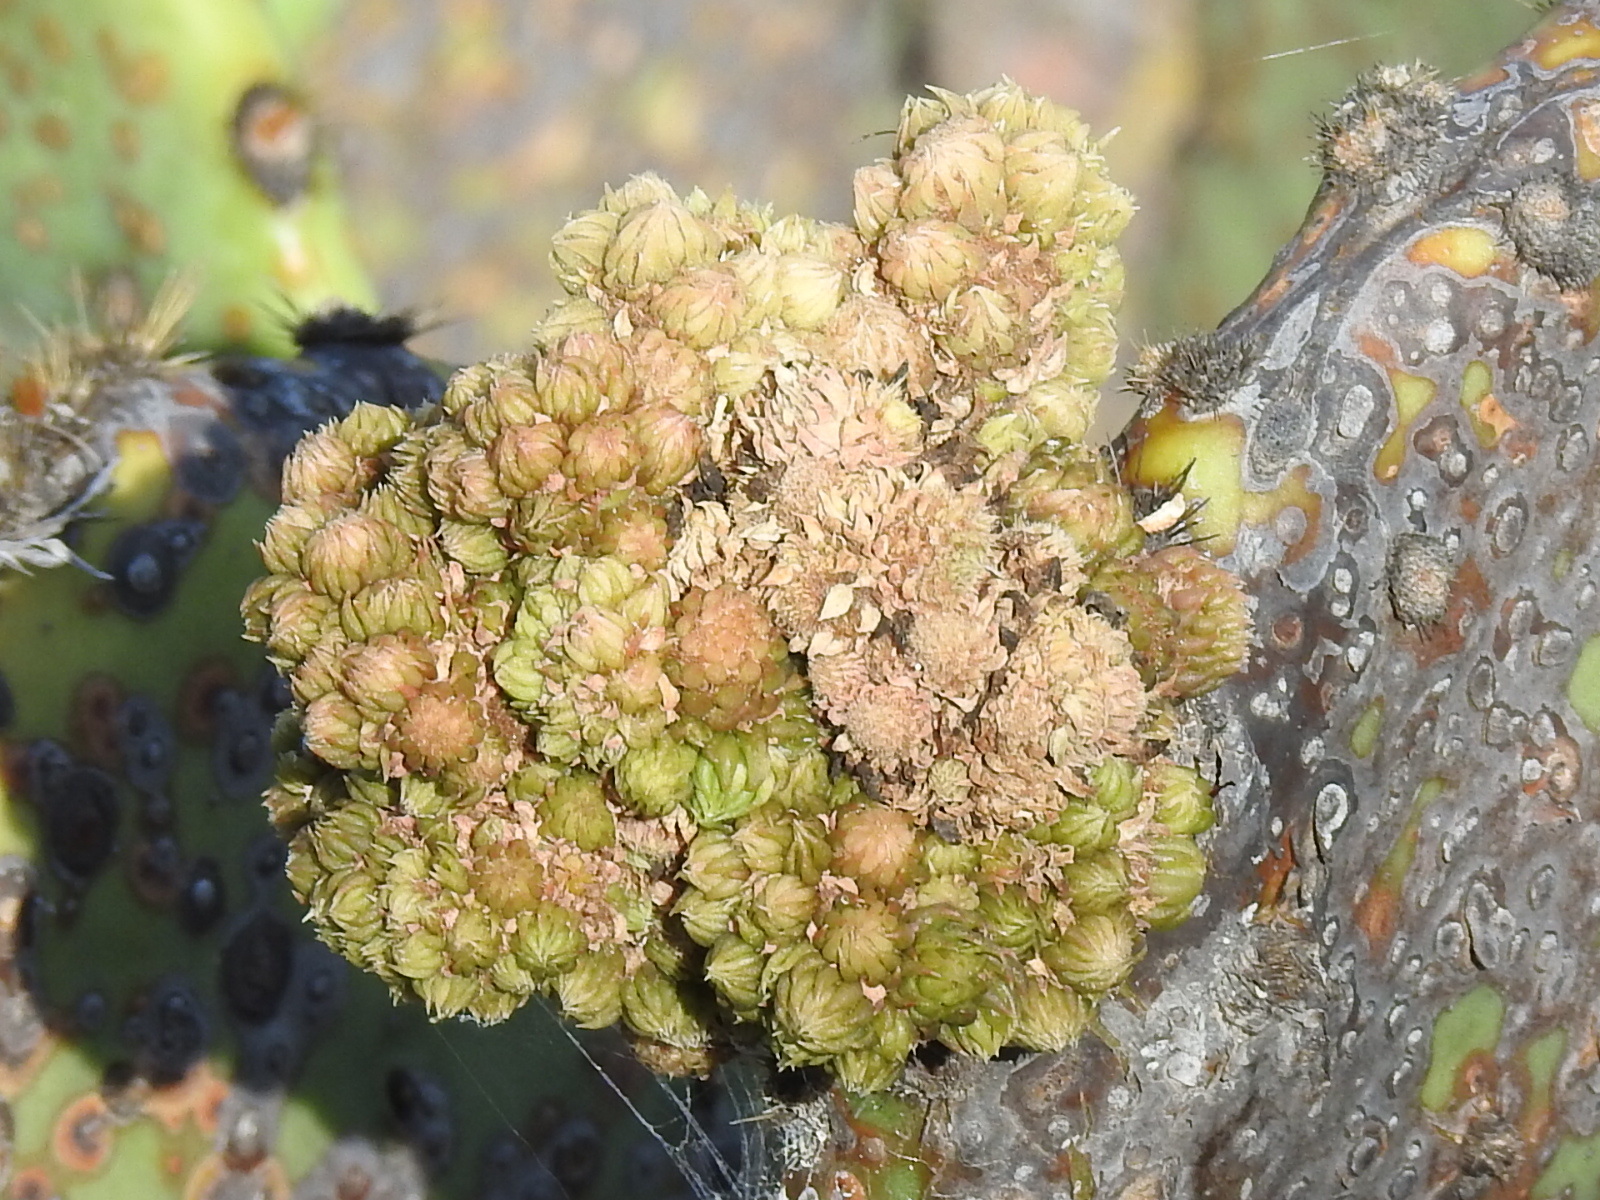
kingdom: Plantae
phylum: Tracheophyta
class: Magnoliopsida
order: Caryophyllales
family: Cactaceae
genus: Opuntia
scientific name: Opuntia orbiculata
